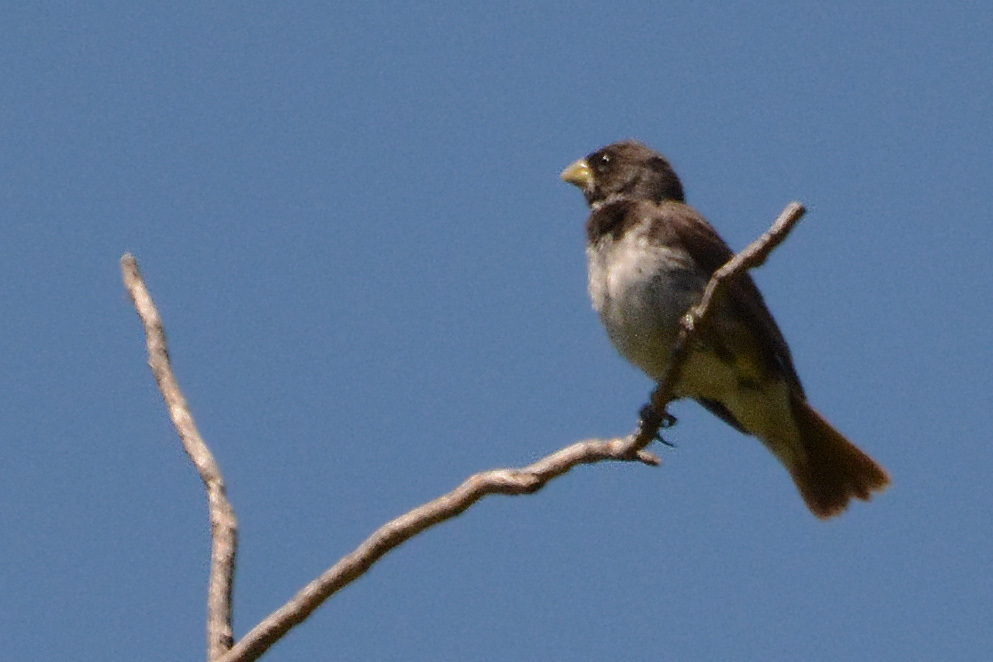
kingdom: Animalia
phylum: Chordata
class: Aves
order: Passeriformes
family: Thraupidae
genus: Sporophila
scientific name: Sporophila caerulescens
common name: Double-collared seedeater
